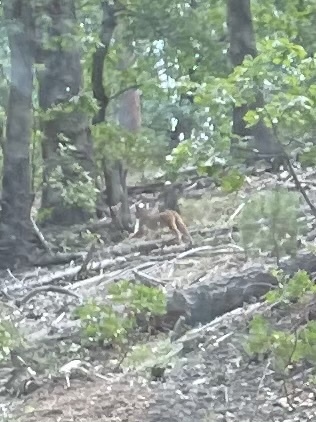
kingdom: Animalia
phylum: Chordata
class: Mammalia
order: Carnivora
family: Felidae
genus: Lynx
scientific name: Lynx rufus
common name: Bobcat
